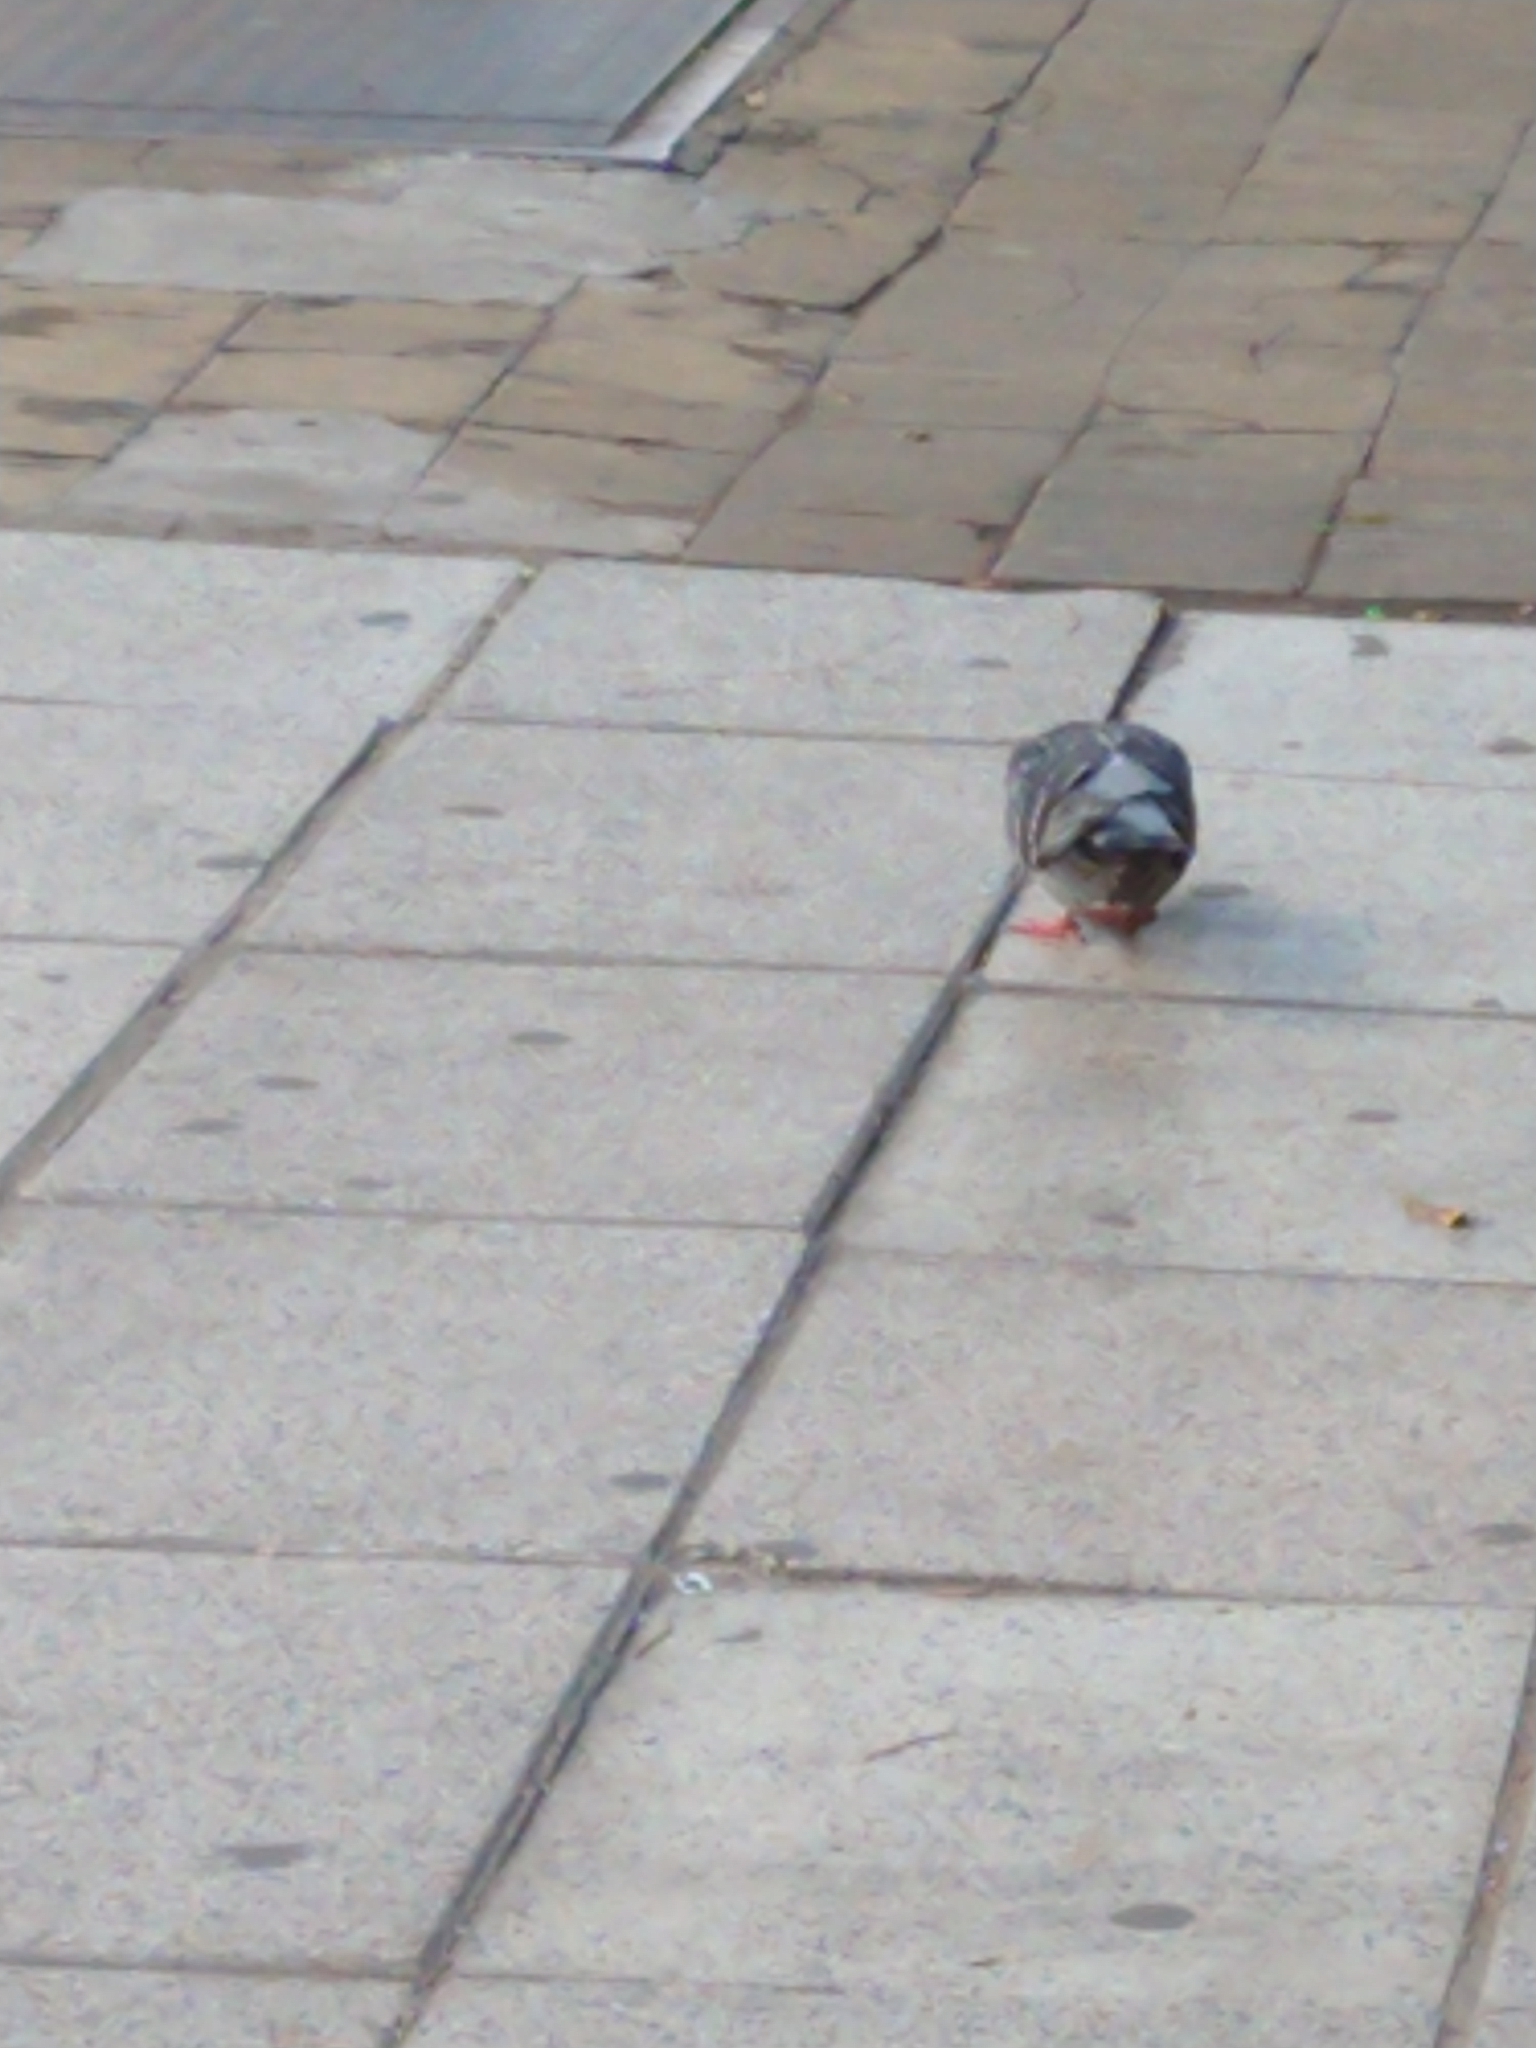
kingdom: Animalia
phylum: Chordata
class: Aves
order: Columbiformes
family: Columbidae
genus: Columba
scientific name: Columba livia
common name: Rock pigeon
